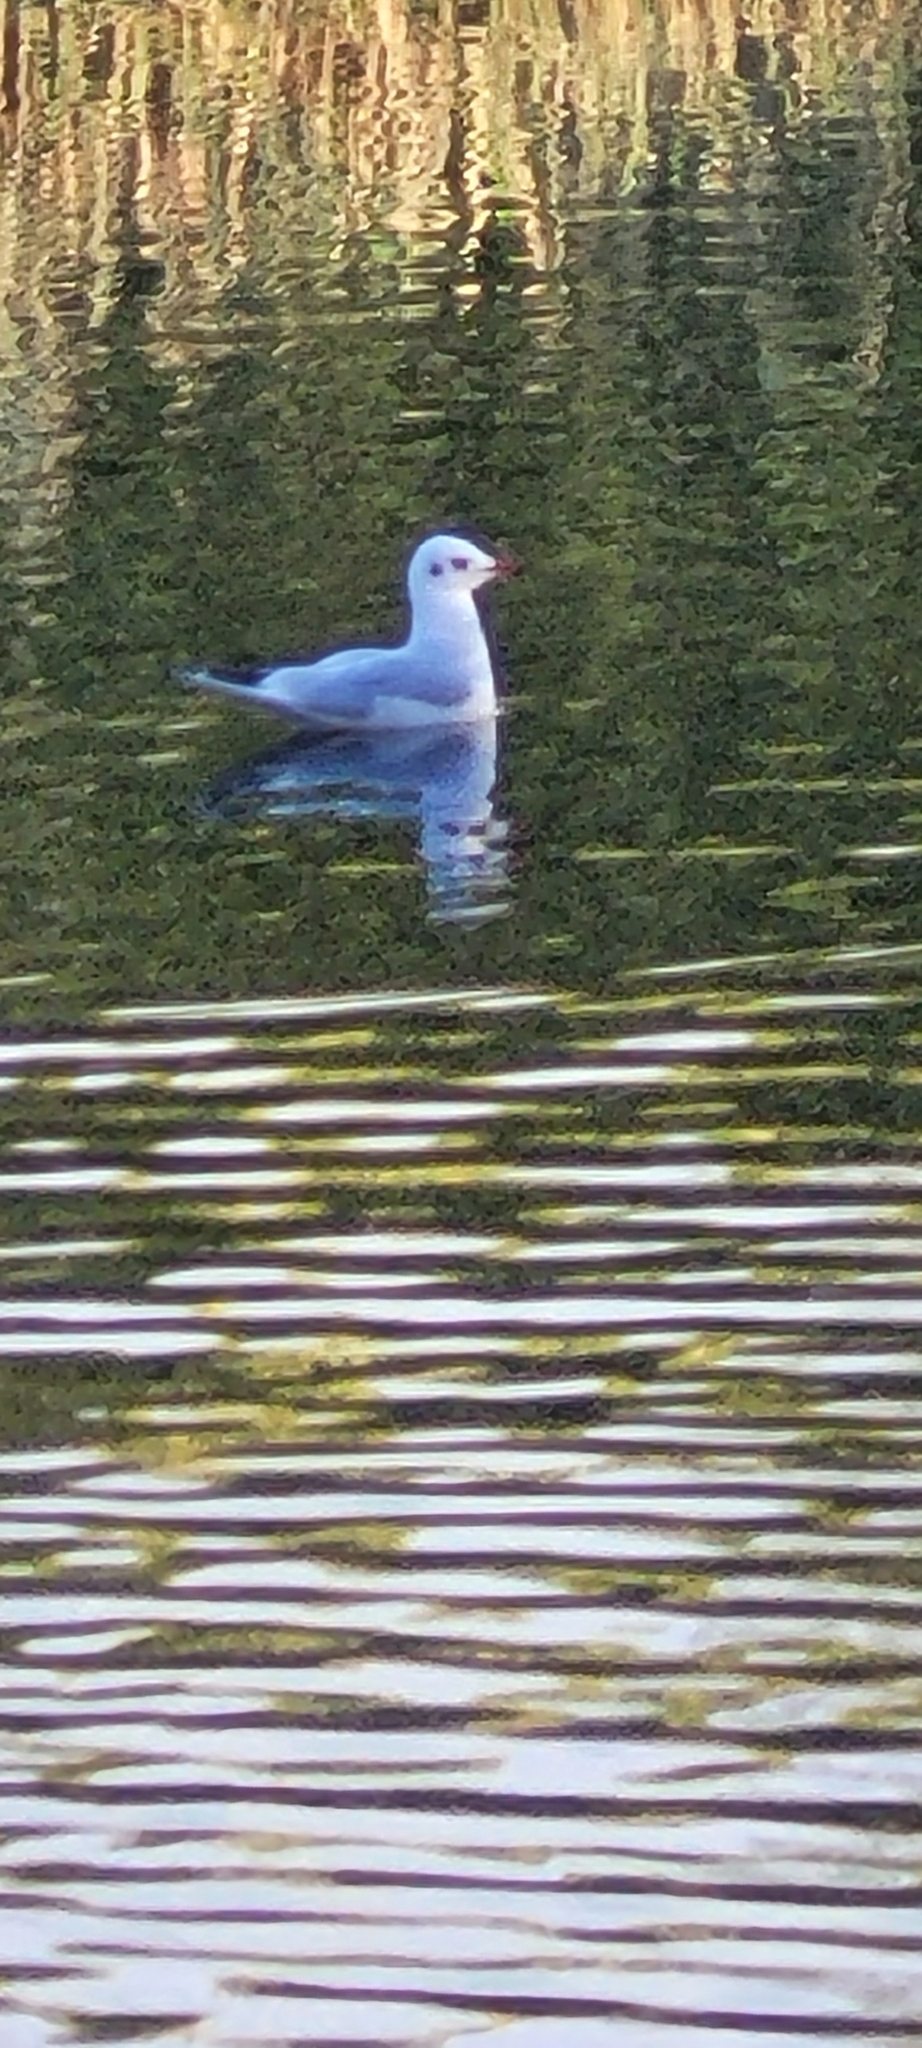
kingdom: Animalia
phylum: Chordata
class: Aves
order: Charadriiformes
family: Laridae
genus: Chroicocephalus
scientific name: Chroicocephalus ridibundus
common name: Black-headed gull
